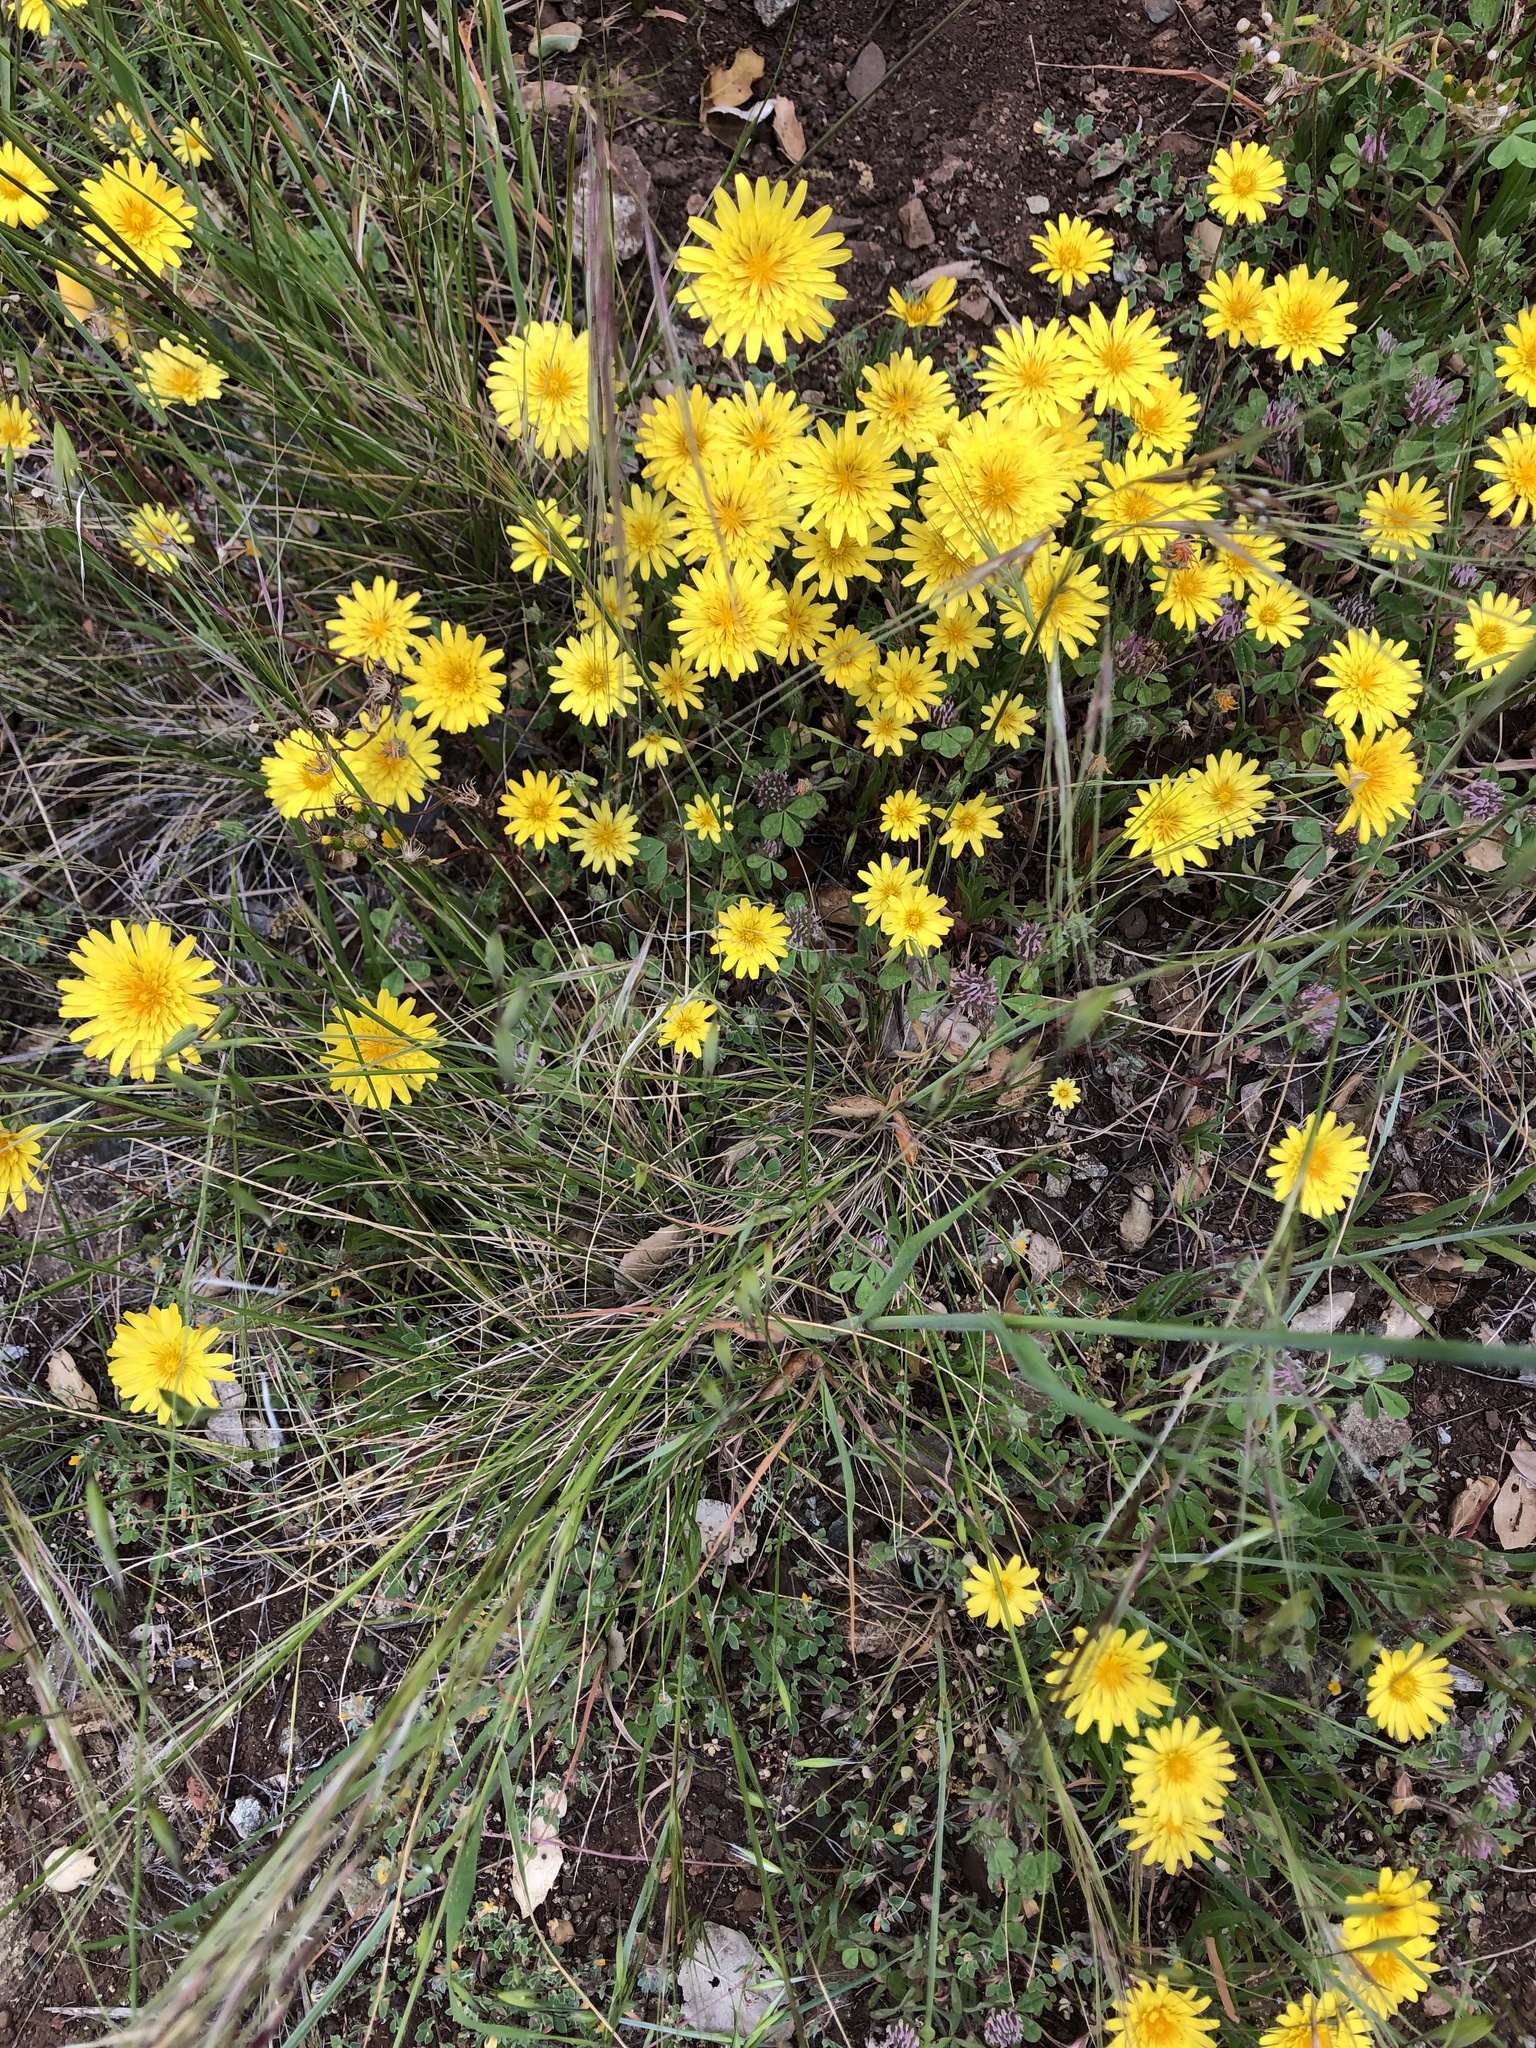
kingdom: Plantae
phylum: Tracheophyta
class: Magnoliopsida
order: Asterales
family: Asteraceae
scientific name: Asteraceae
